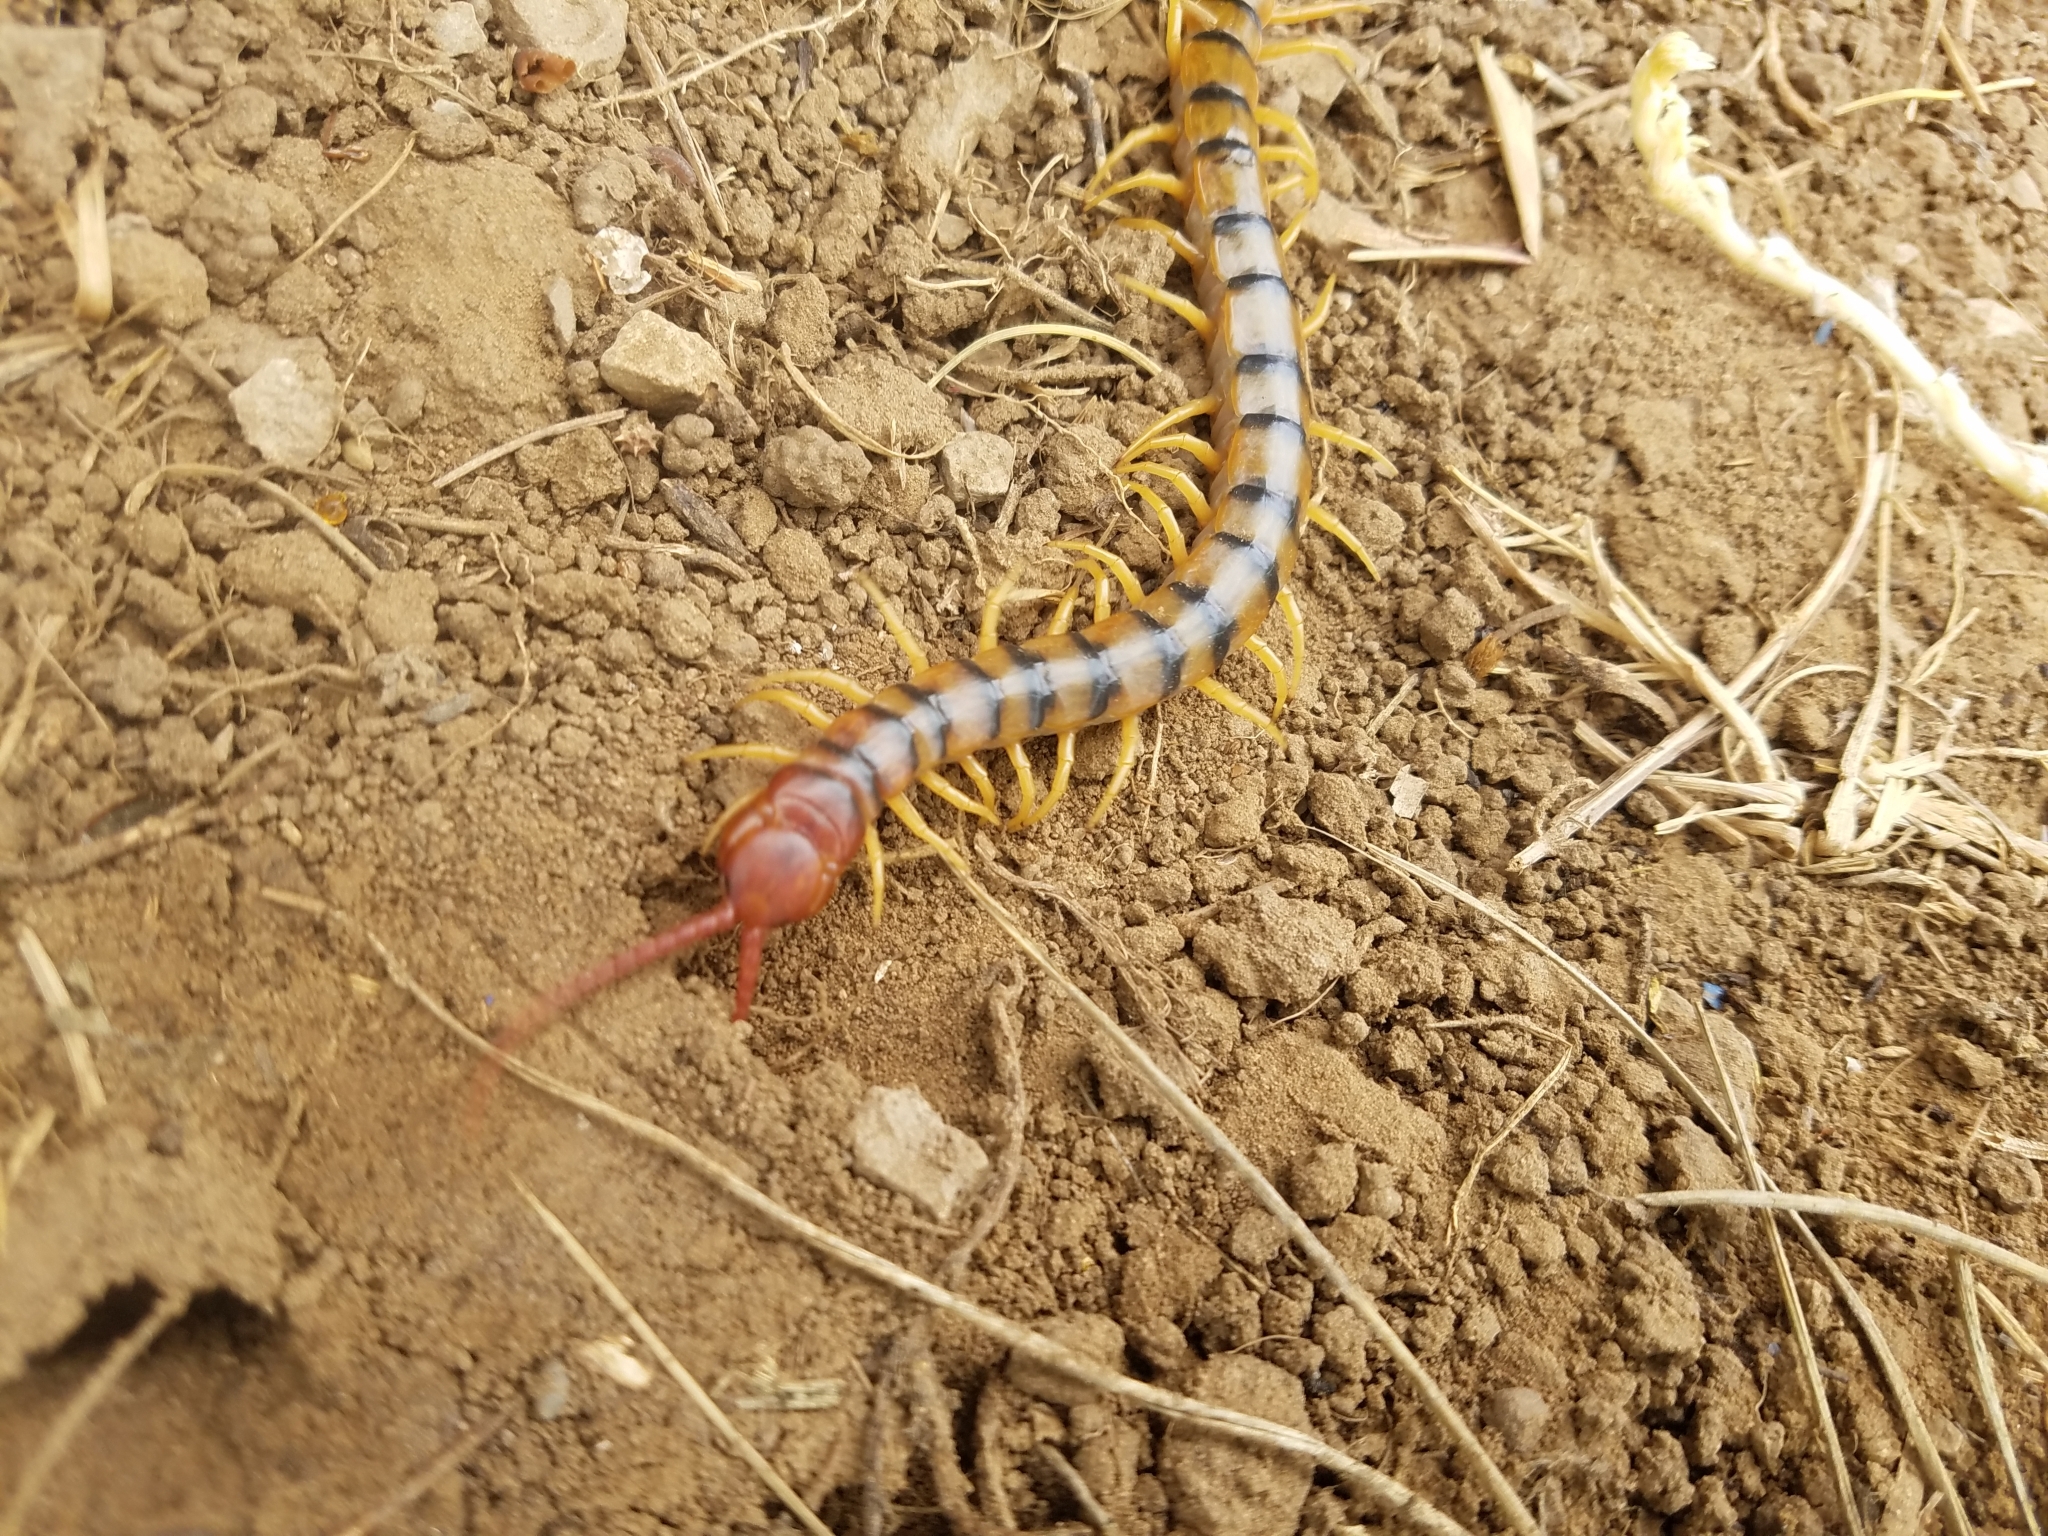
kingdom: Animalia
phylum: Arthropoda
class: Chilopoda
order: Scolopendromorpha
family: Scolopendridae
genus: Scolopendra
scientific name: Scolopendra polymorpha
